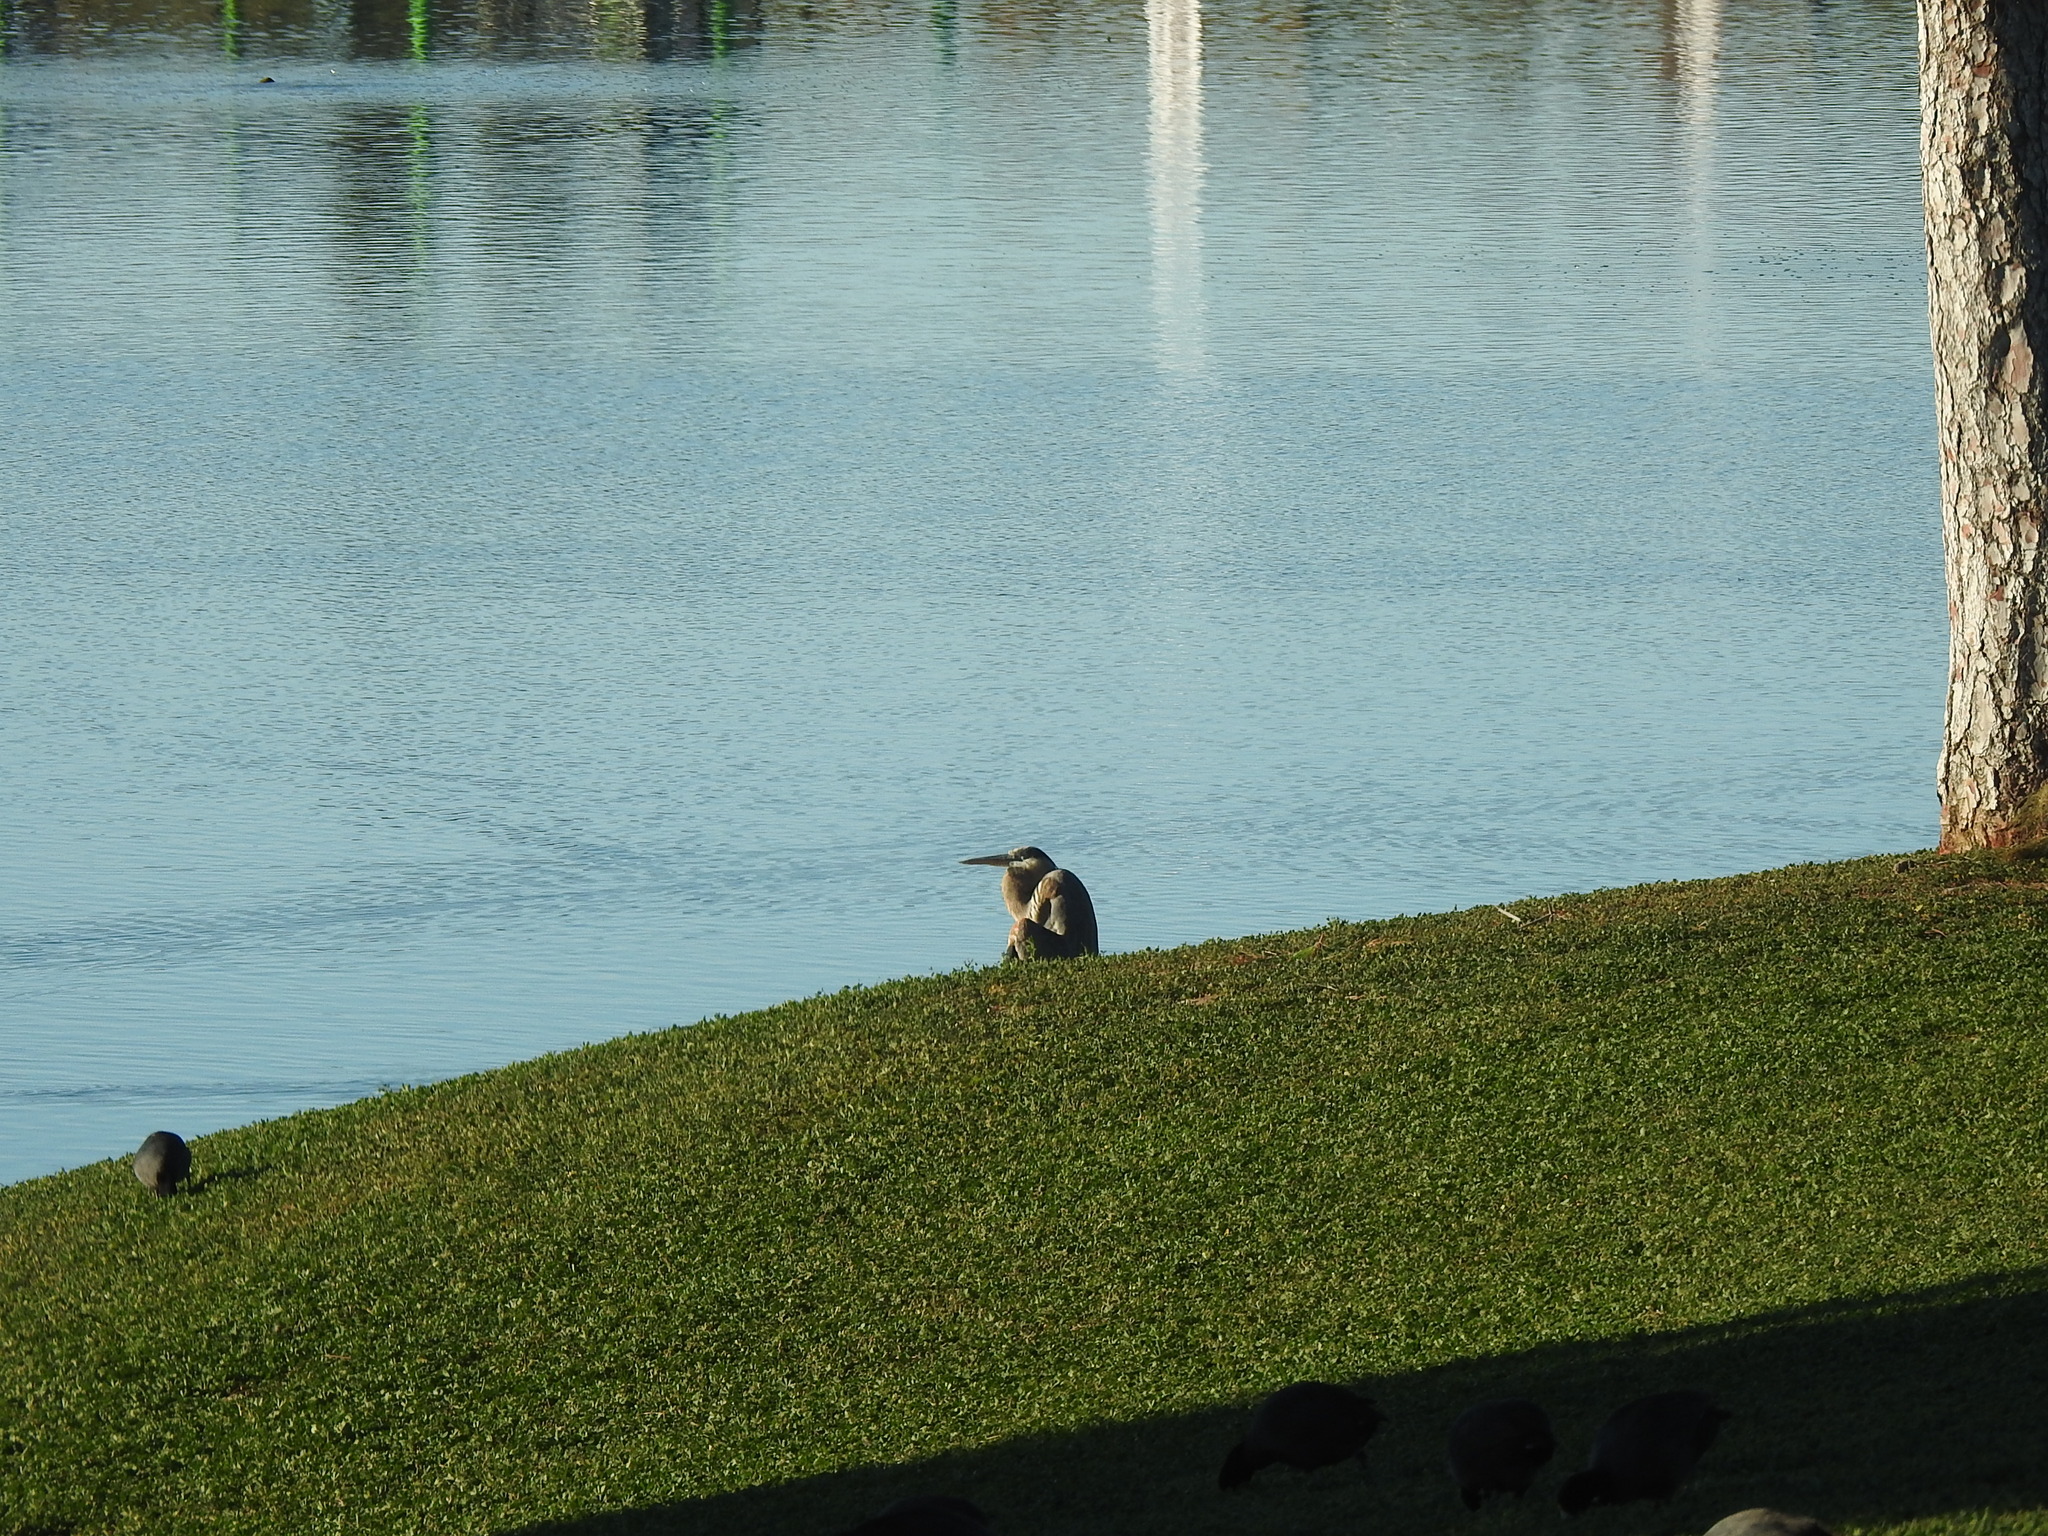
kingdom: Animalia
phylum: Chordata
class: Aves
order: Pelecaniformes
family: Ardeidae
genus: Ardea
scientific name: Ardea herodias
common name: Great blue heron
